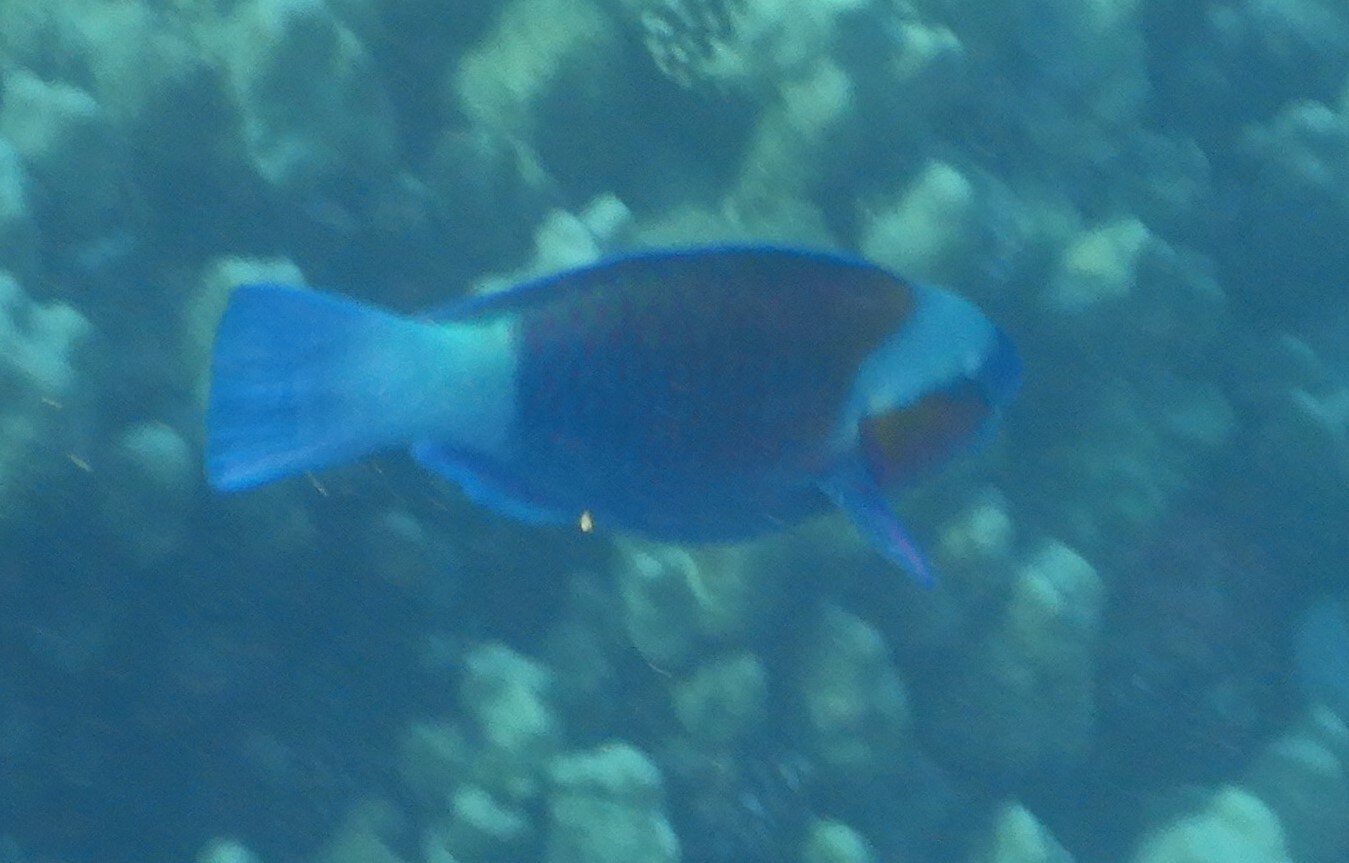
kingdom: Animalia
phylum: Chordata
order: Perciformes
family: Scaridae
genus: Chlorurus
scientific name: Chlorurus sordidus
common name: Bullethead parrotfish
